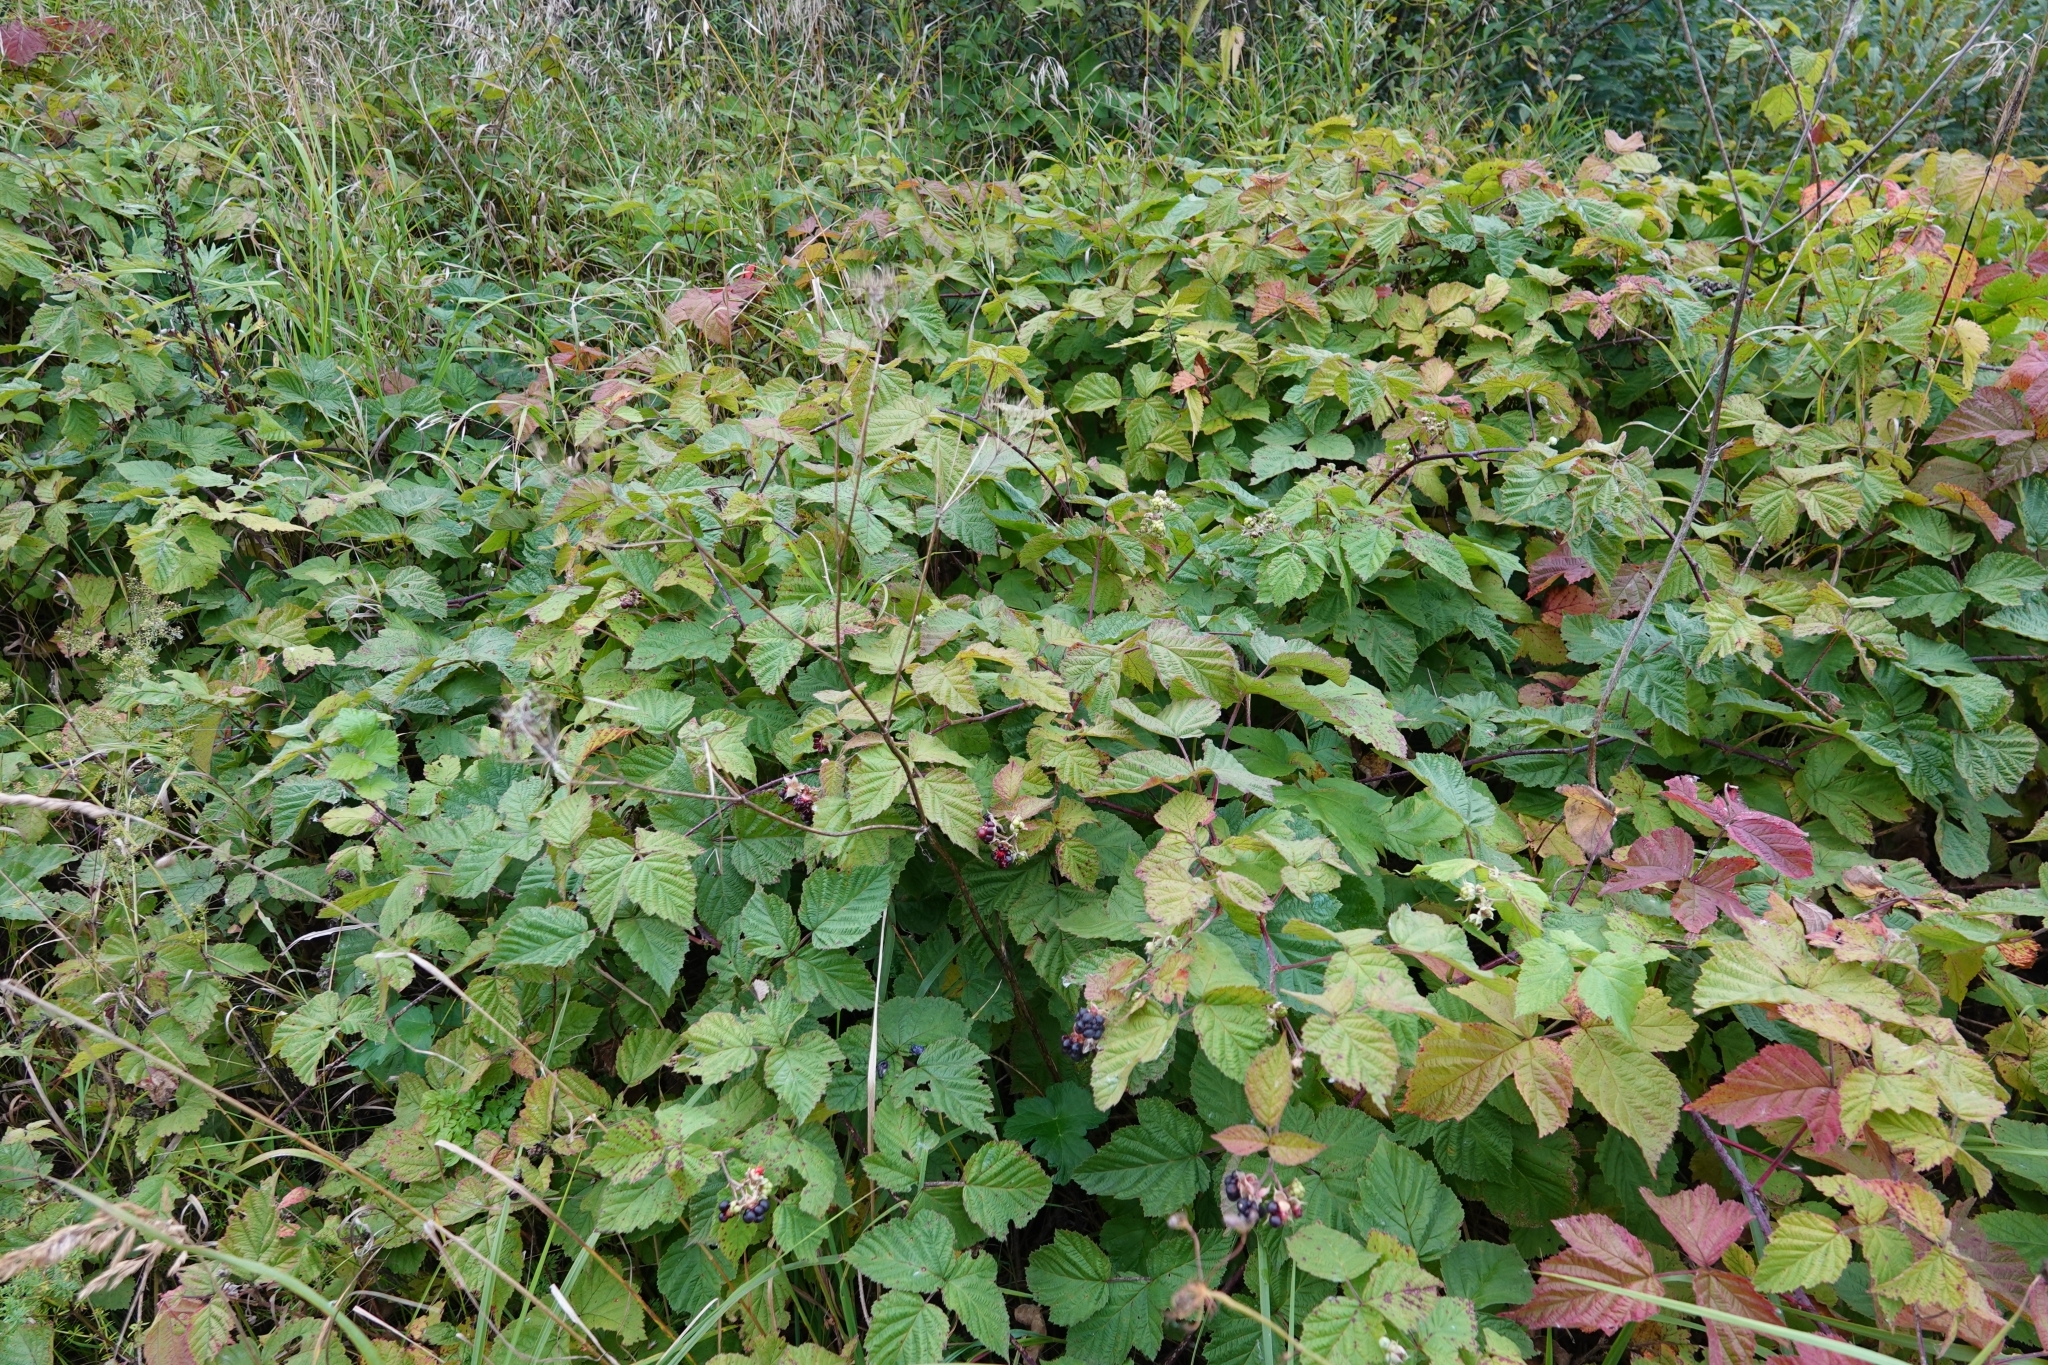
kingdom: Plantae
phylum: Tracheophyta
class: Magnoliopsida
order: Rosales
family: Rosaceae
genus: Rubus
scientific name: Rubus caesius
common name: Dewberry
